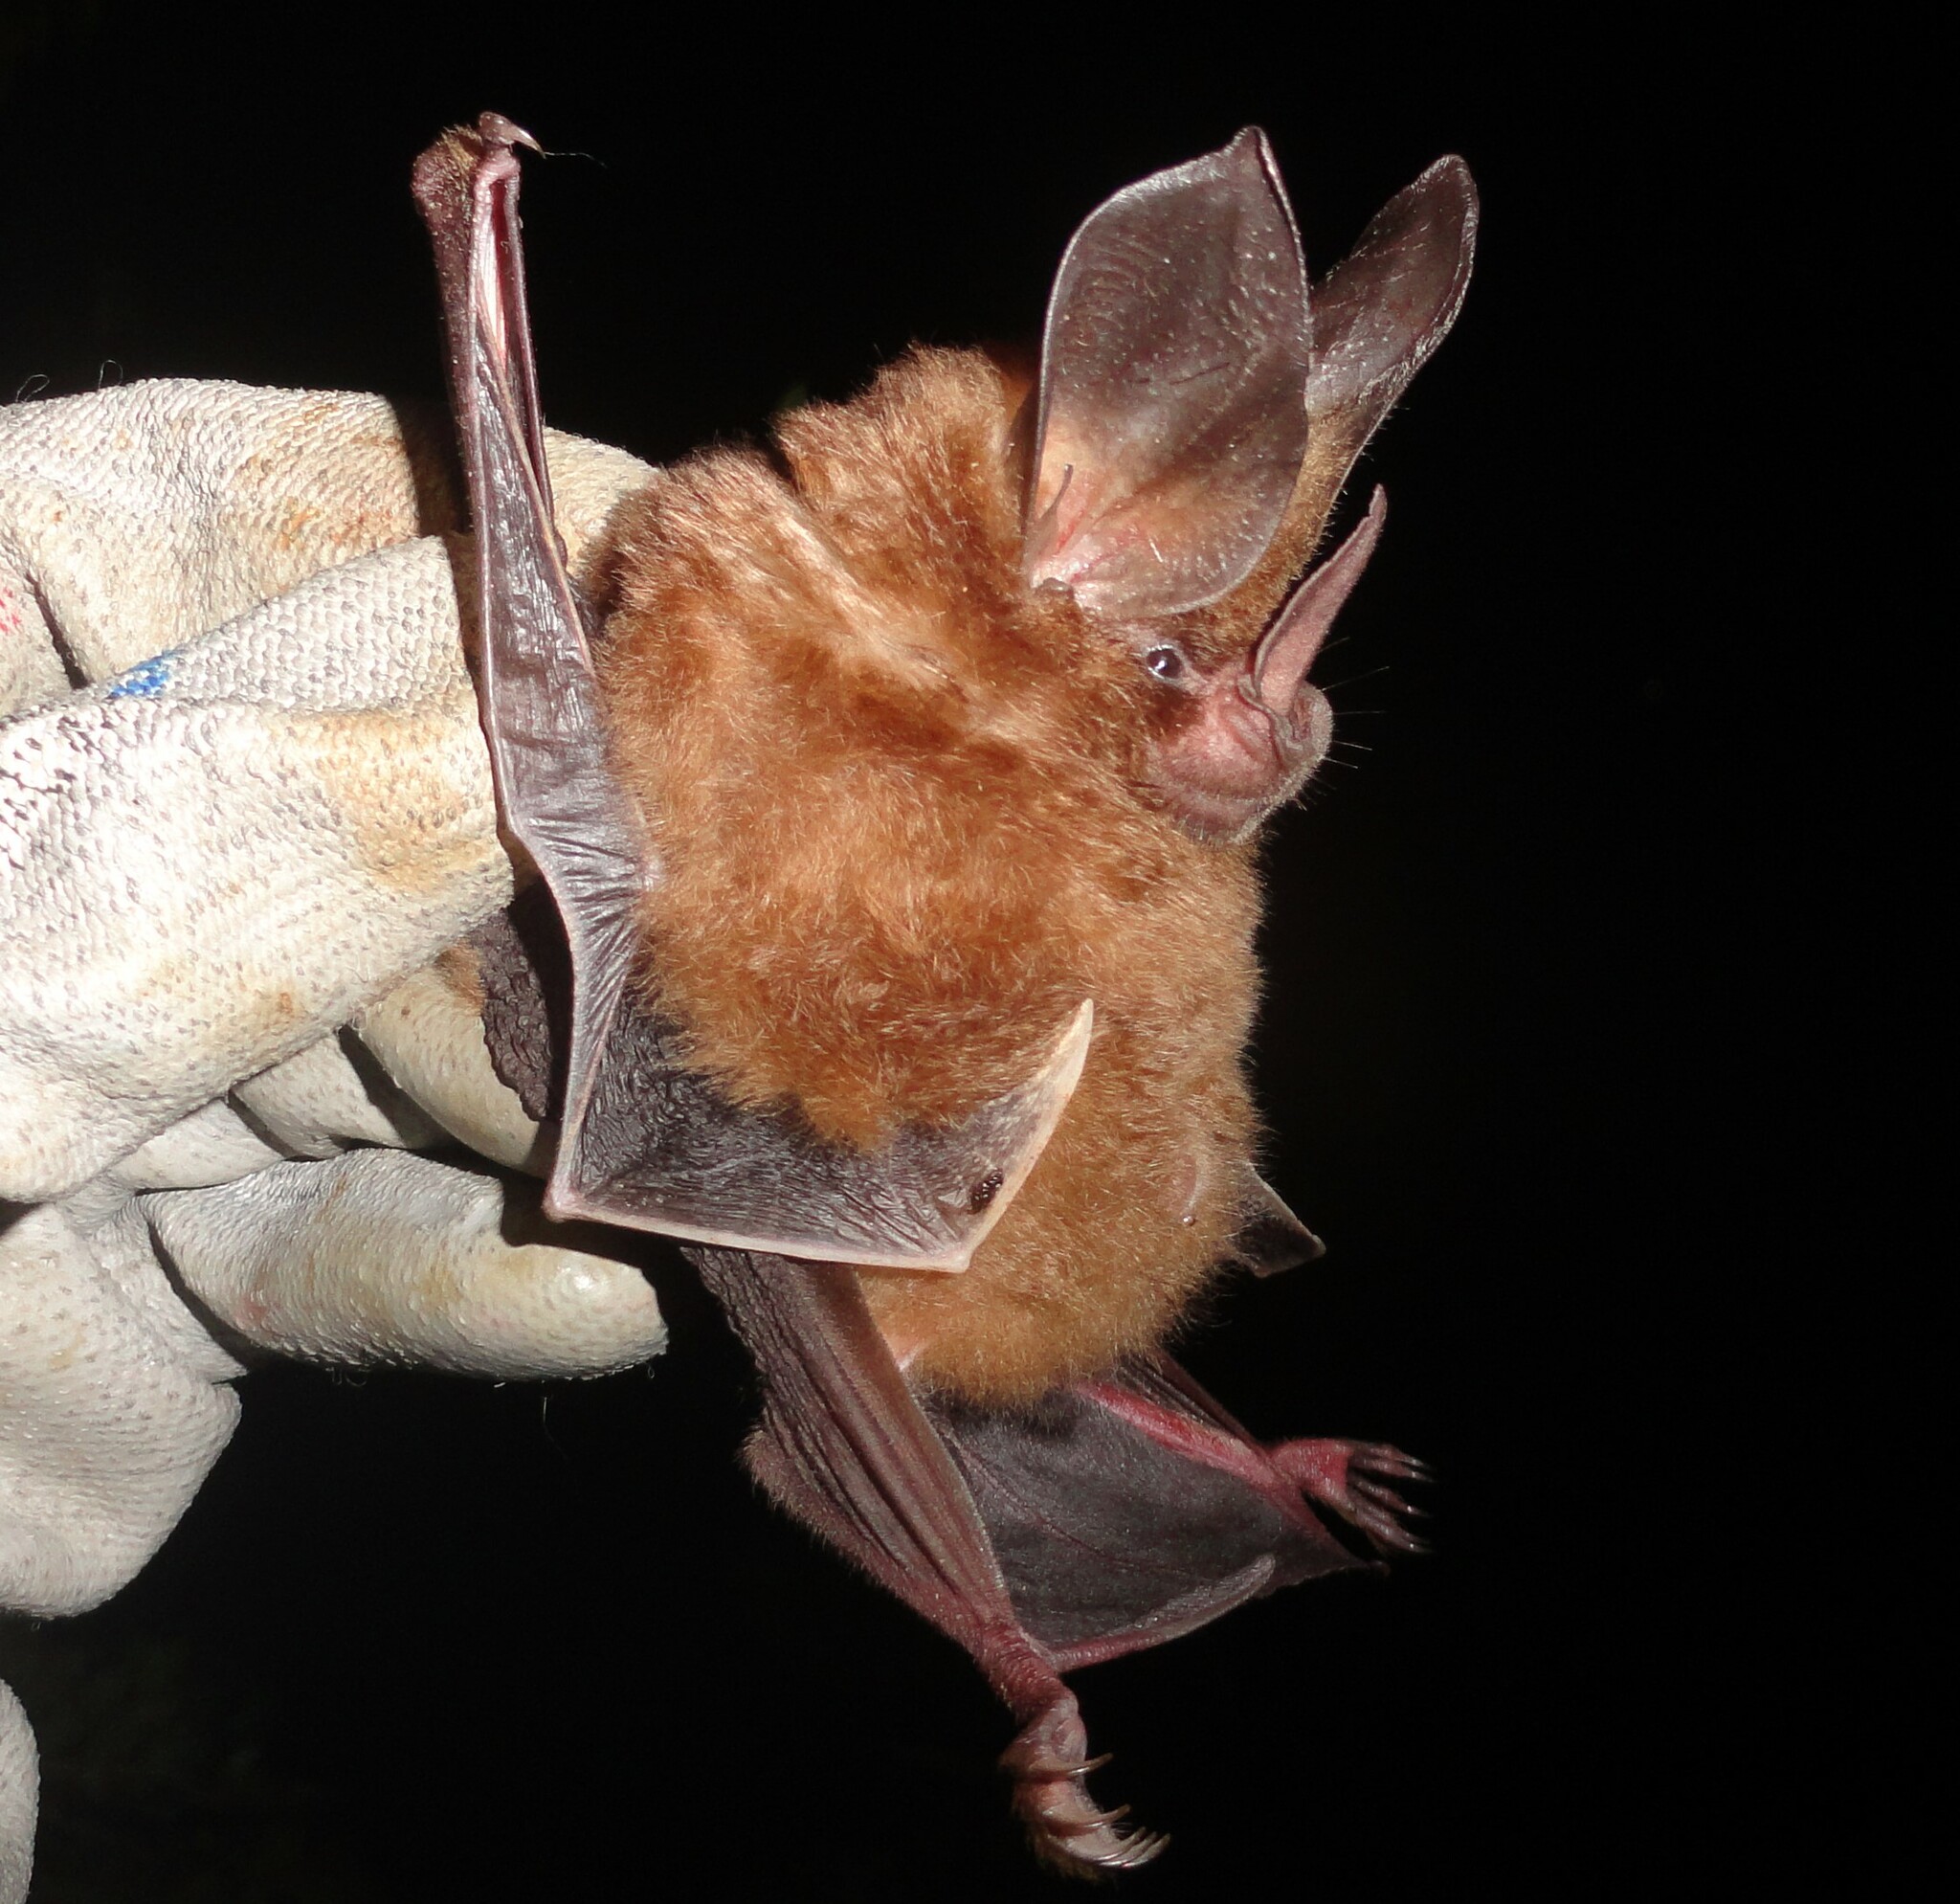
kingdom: Animalia
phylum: Chordata
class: Mammalia
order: Chiroptera
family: Phyllostomidae
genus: Mimon
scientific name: Mimon bennettii
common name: Southern golden bat
